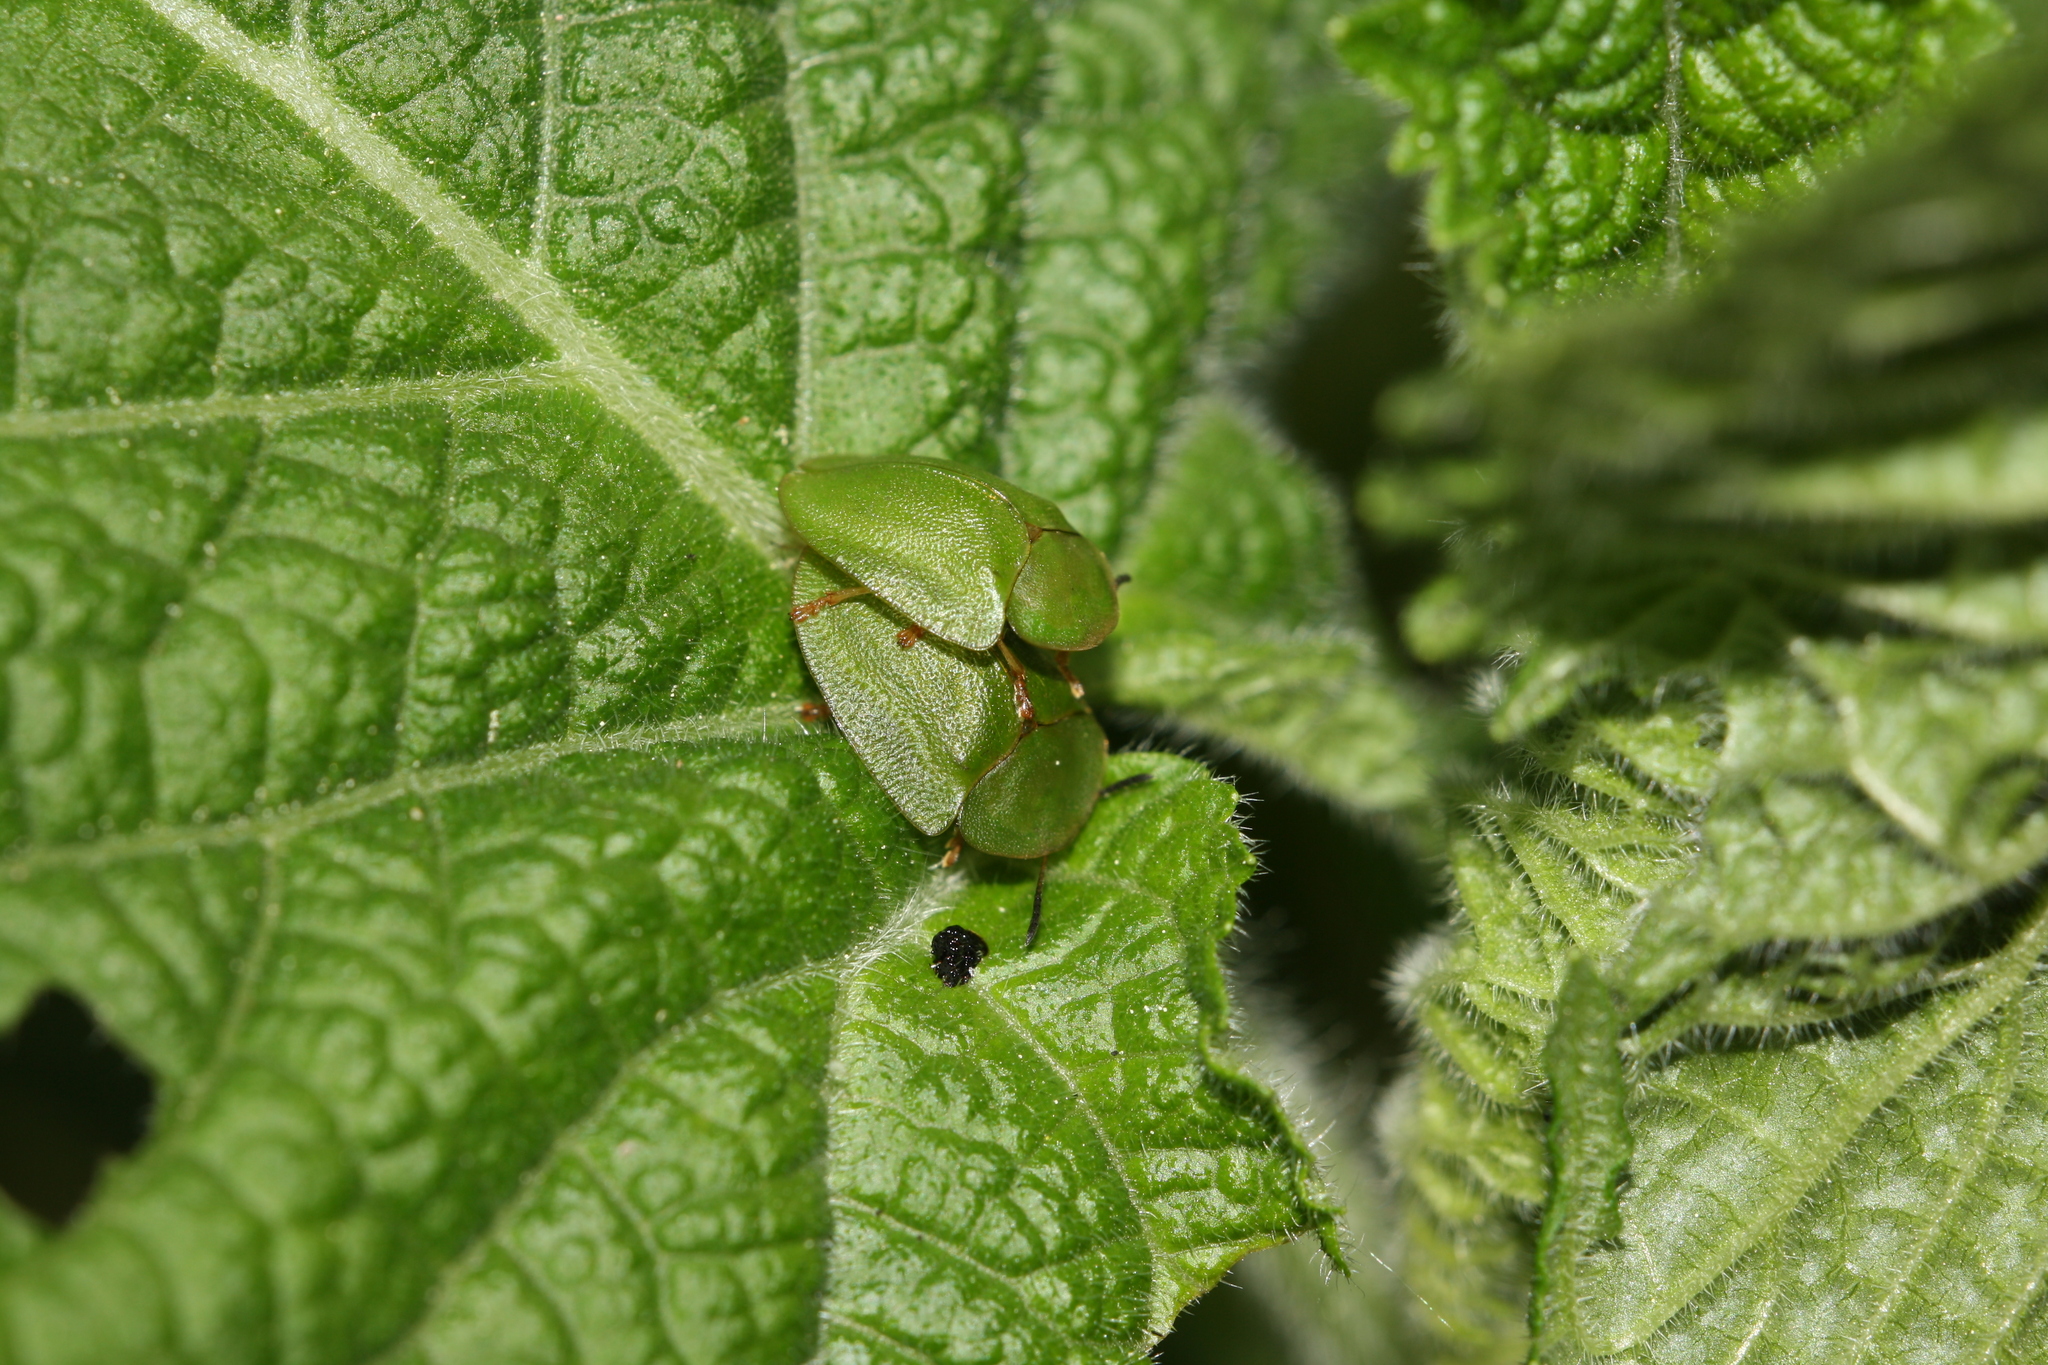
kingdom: Animalia
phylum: Arthropoda
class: Insecta
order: Coleoptera
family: Chrysomelidae
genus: Cassida
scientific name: Cassida viridis
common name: Green tortoise beetle
